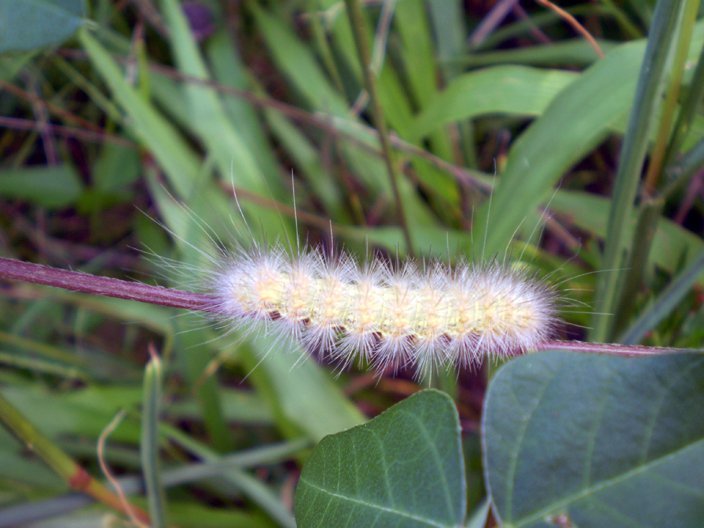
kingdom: Animalia
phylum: Arthropoda
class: Insecta
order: Lepidoptera
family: Erebidae
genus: Spilosoma
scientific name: Spilosoma virginica
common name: Virginia tiger moth
